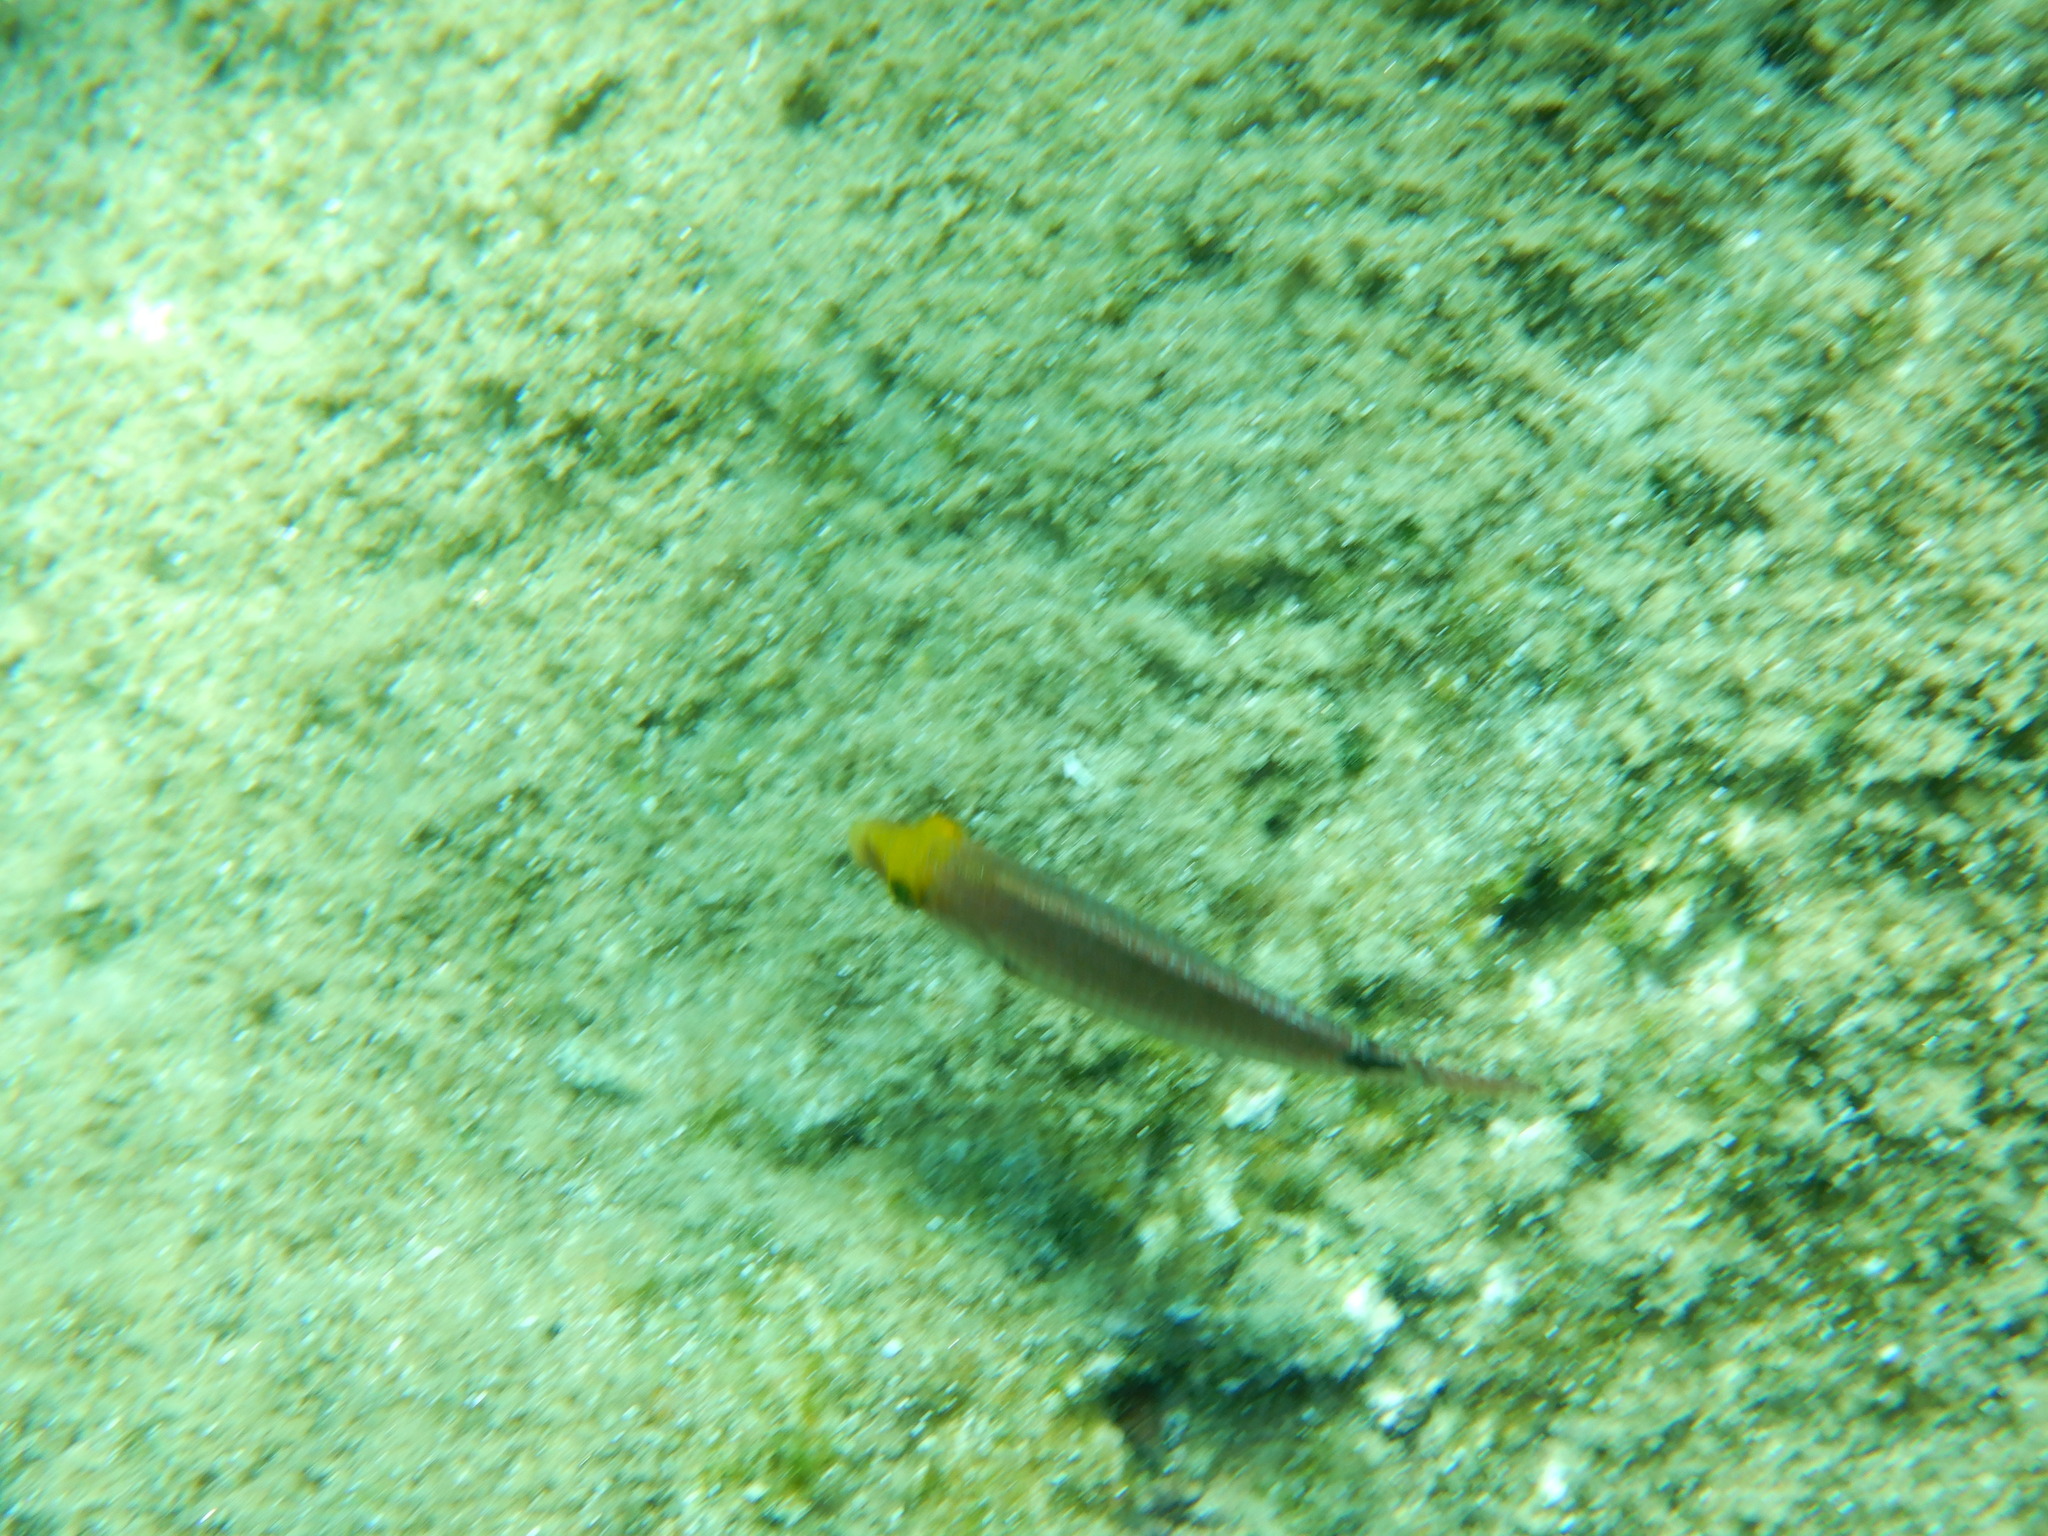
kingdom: Animalia
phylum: Chordata
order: Perciformes
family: Labridae
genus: Symphodus
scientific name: Symphodus mediterraneus
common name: Axillary wrasse
